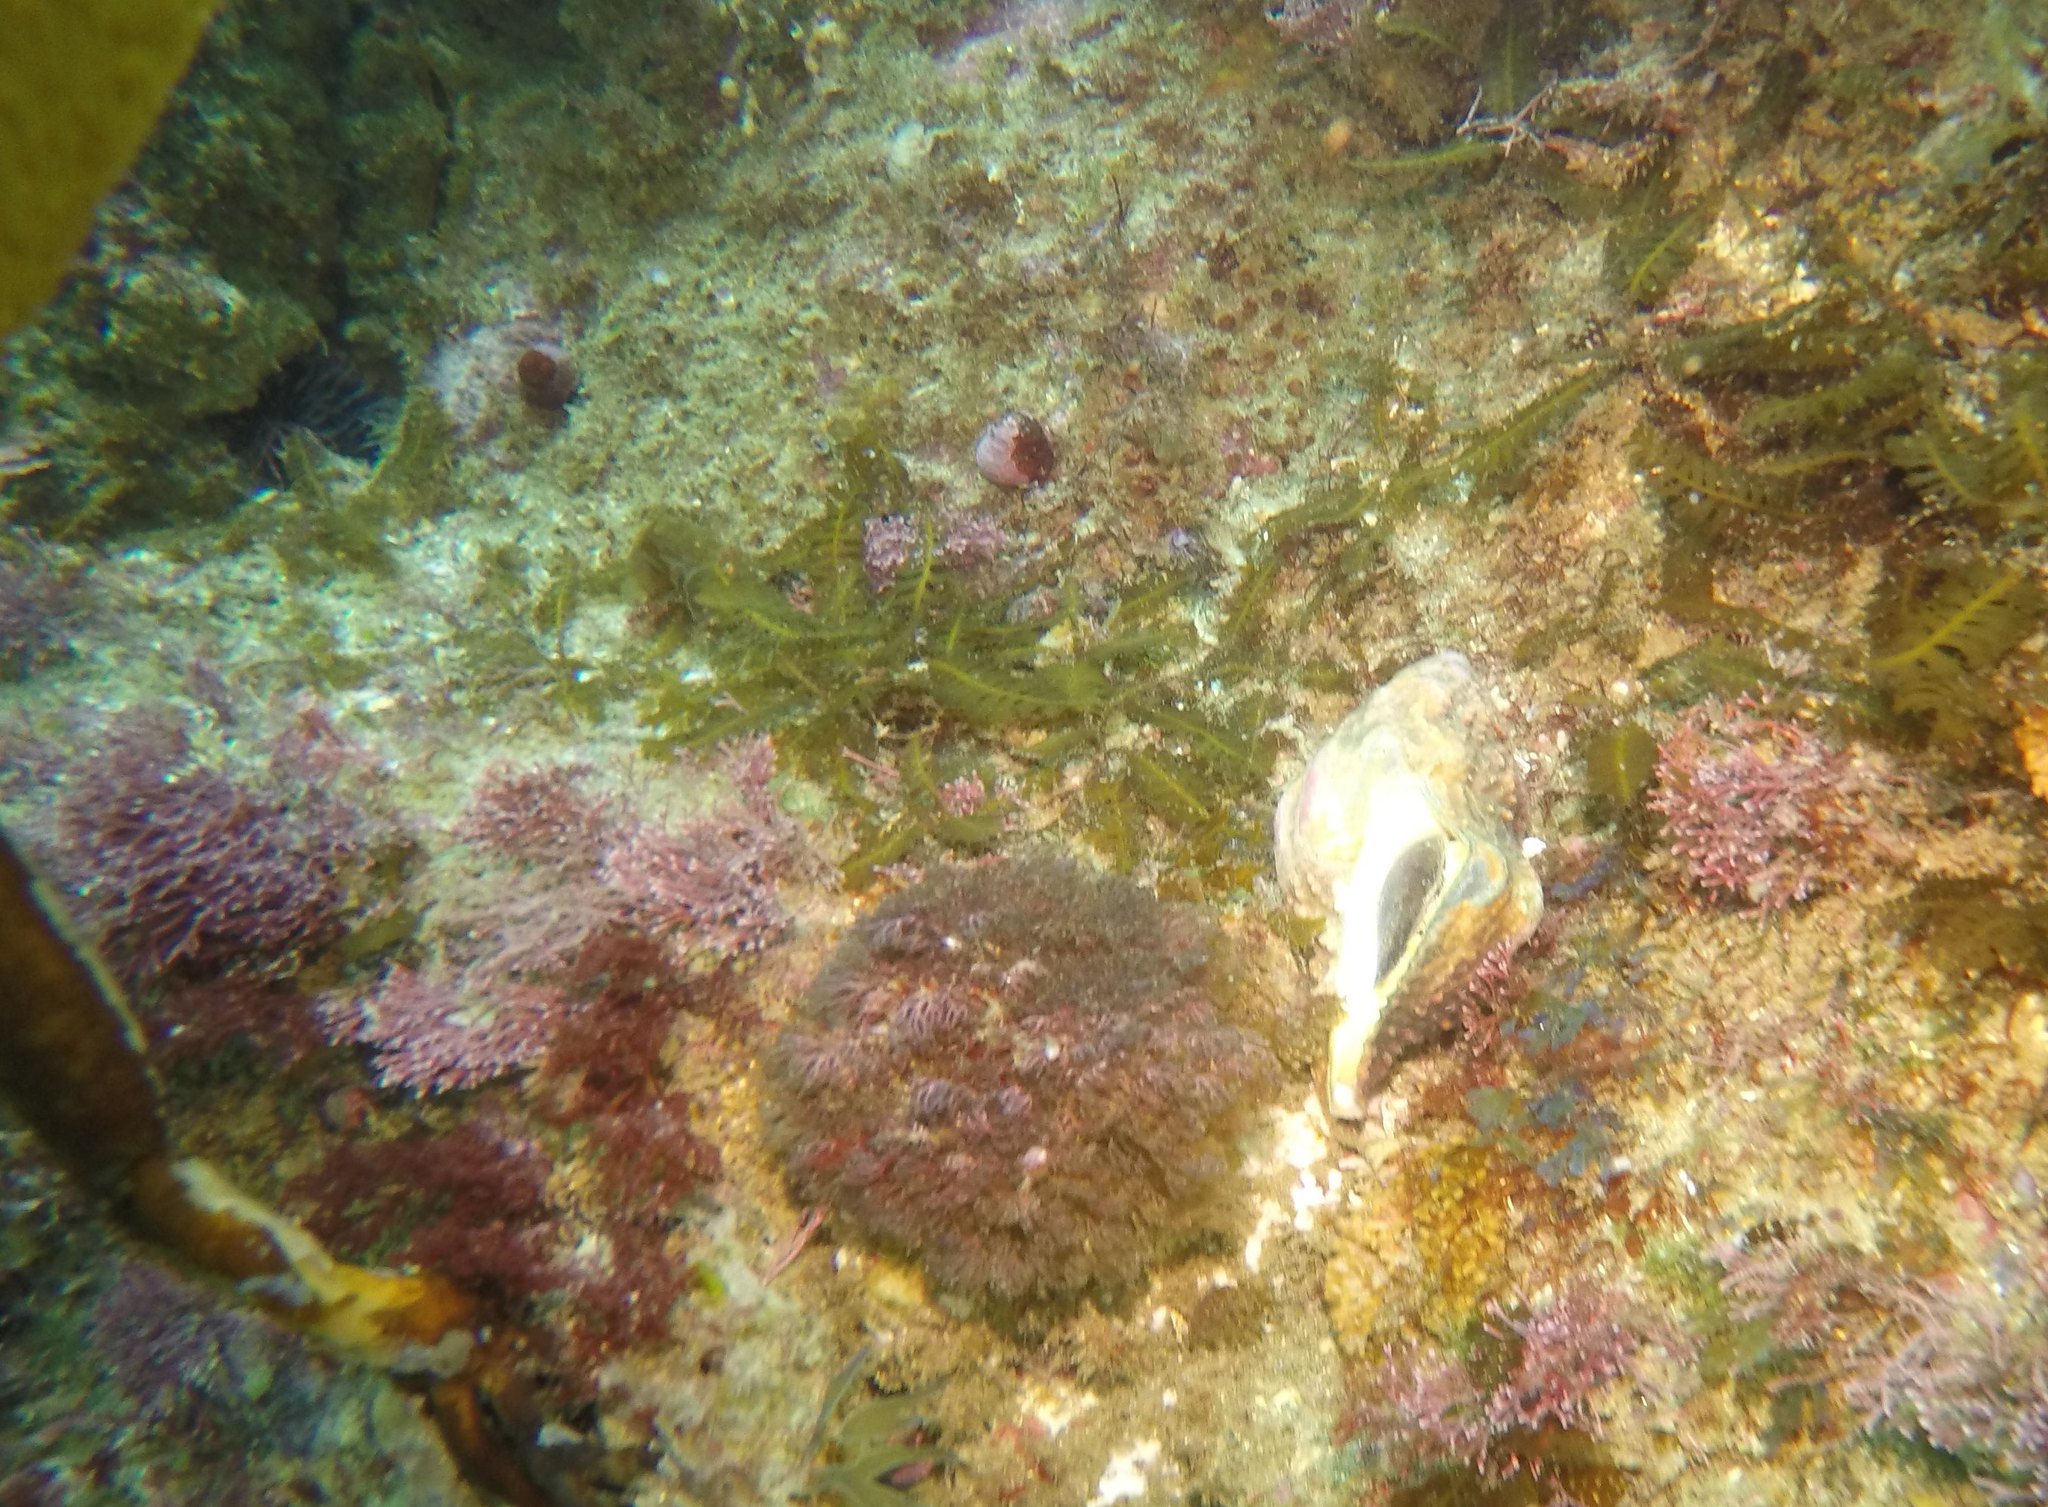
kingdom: Animalia
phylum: Mollusca
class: Gastropoda
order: Neogastropoda
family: Austrosiphonidae
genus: Kelletia
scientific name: Kelletia kelletii
